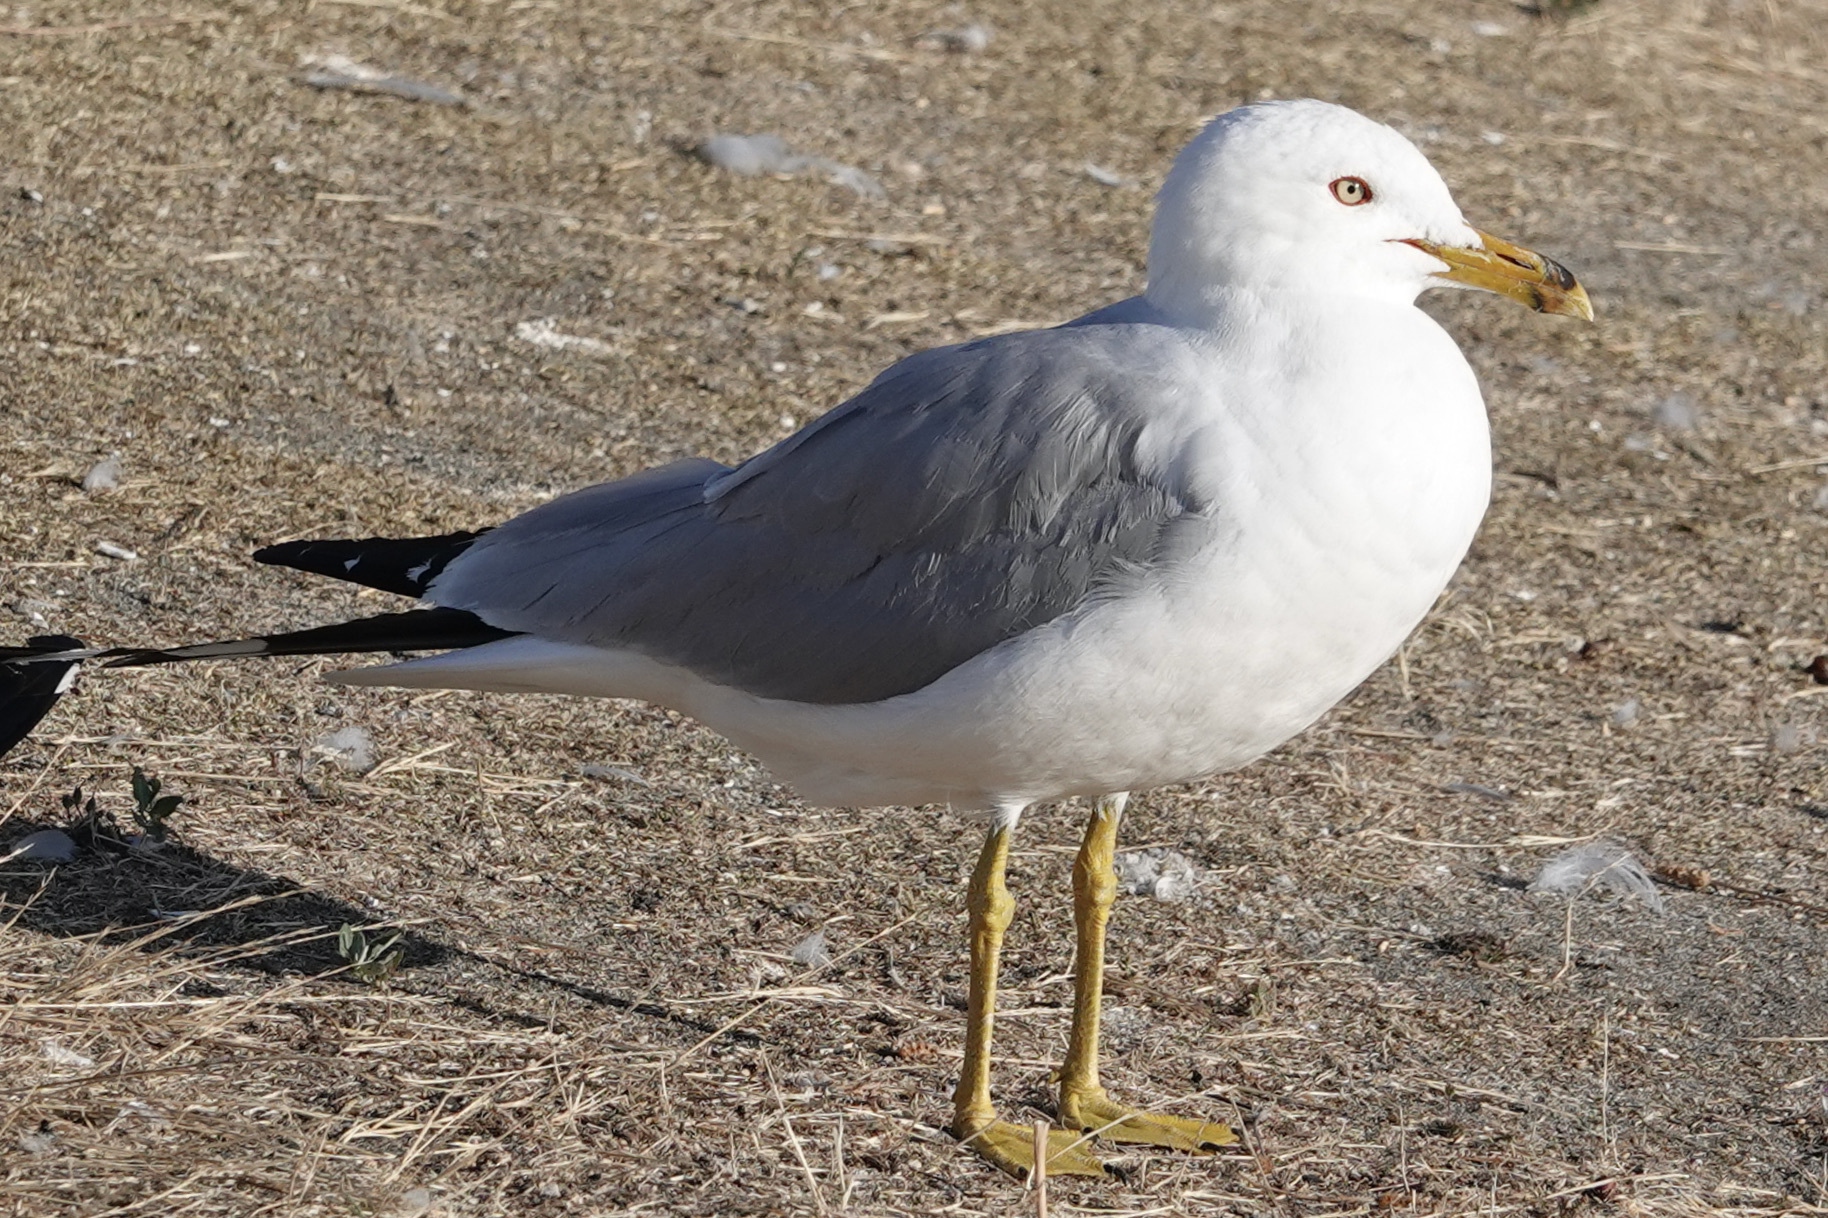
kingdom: Animalia
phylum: Chordata
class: Aves
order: Charadriiformes
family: Laridae
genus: Larus
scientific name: Larus delawarensis
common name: Ring-billed gull
